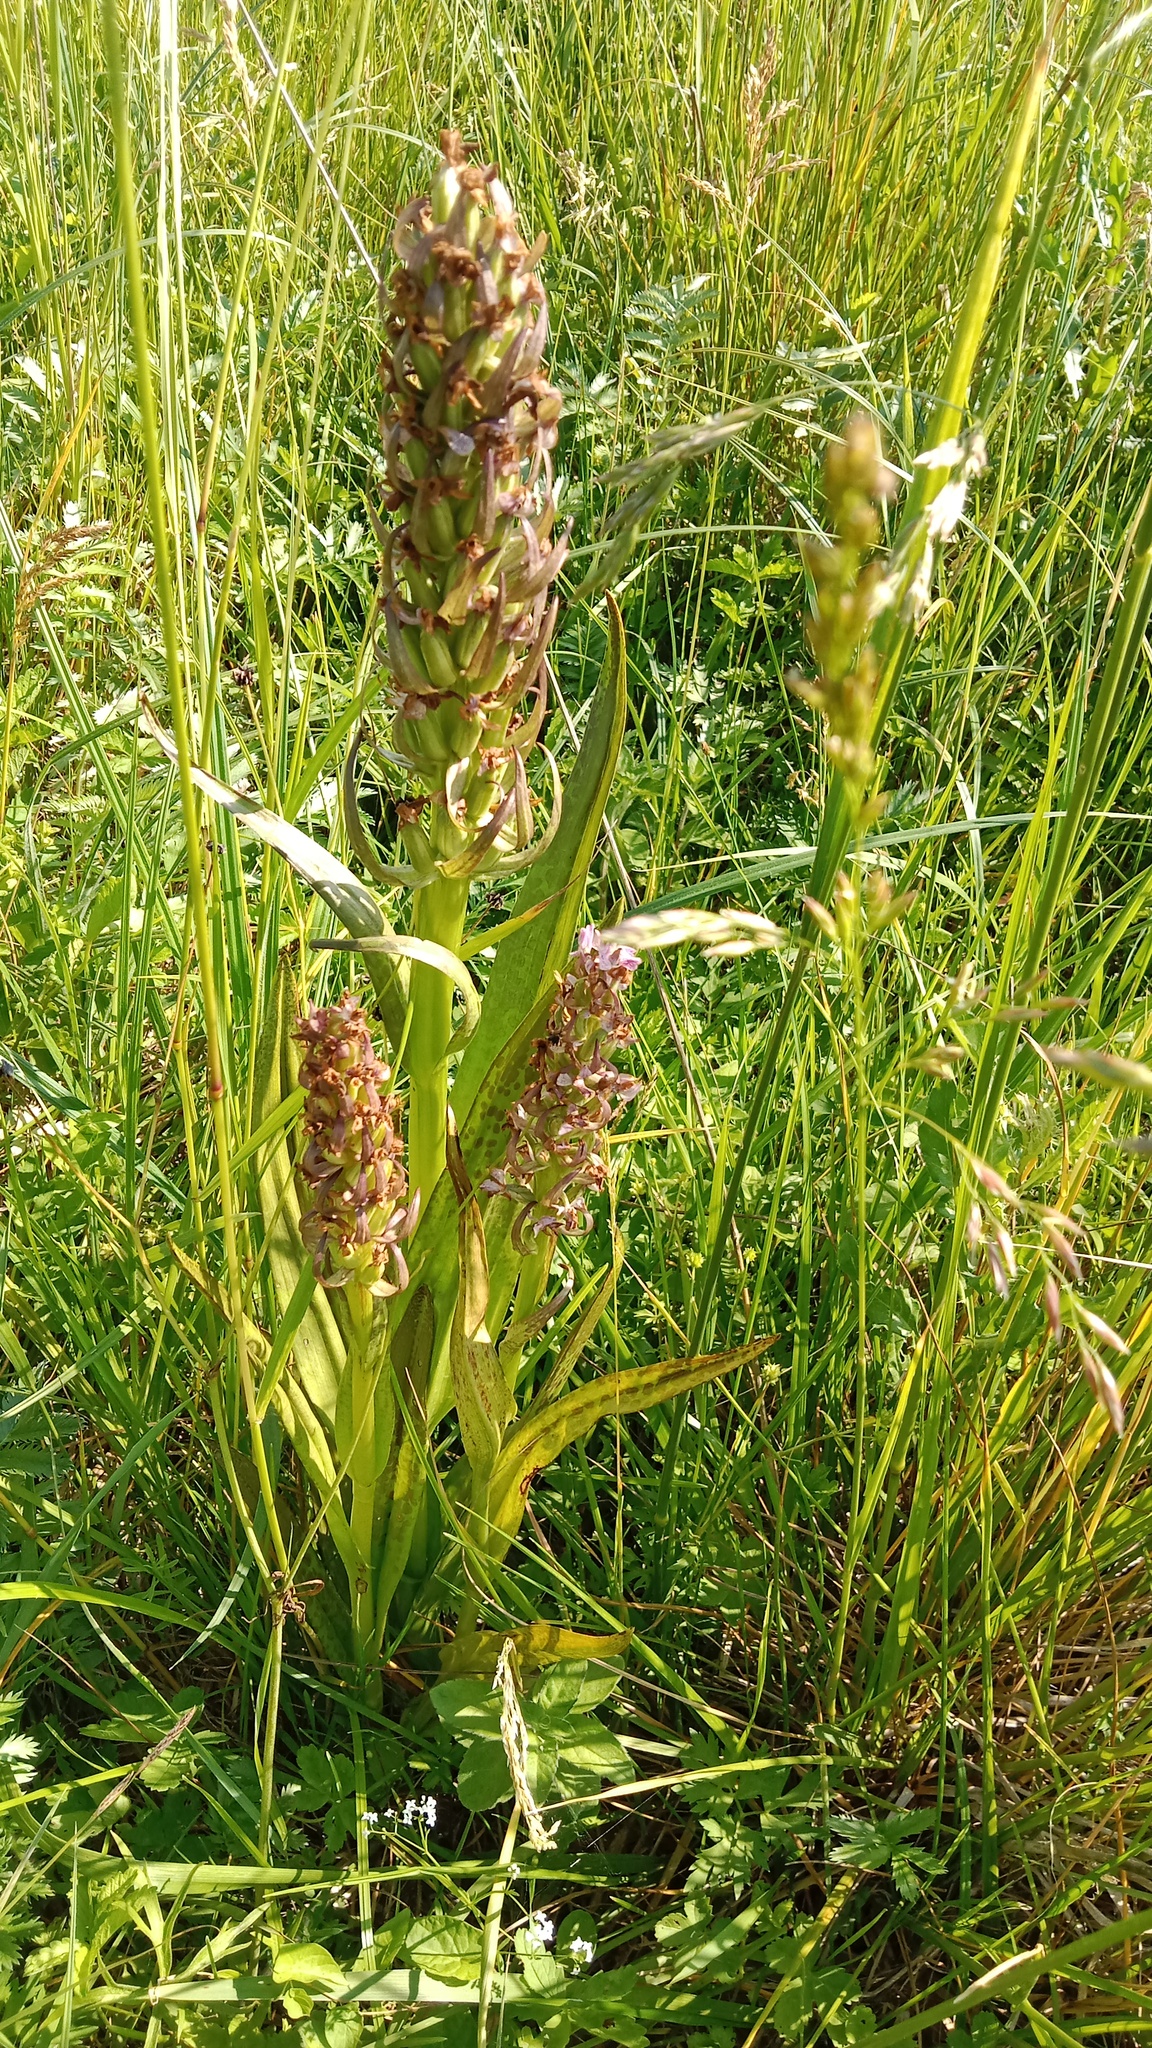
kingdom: Plantae
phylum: Tracheophyta
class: Liliopsida
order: Asparagales
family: Orchidaceae
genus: Dactylorhiza
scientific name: Dactylorhiza incarnata
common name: Early marsh-orchid
